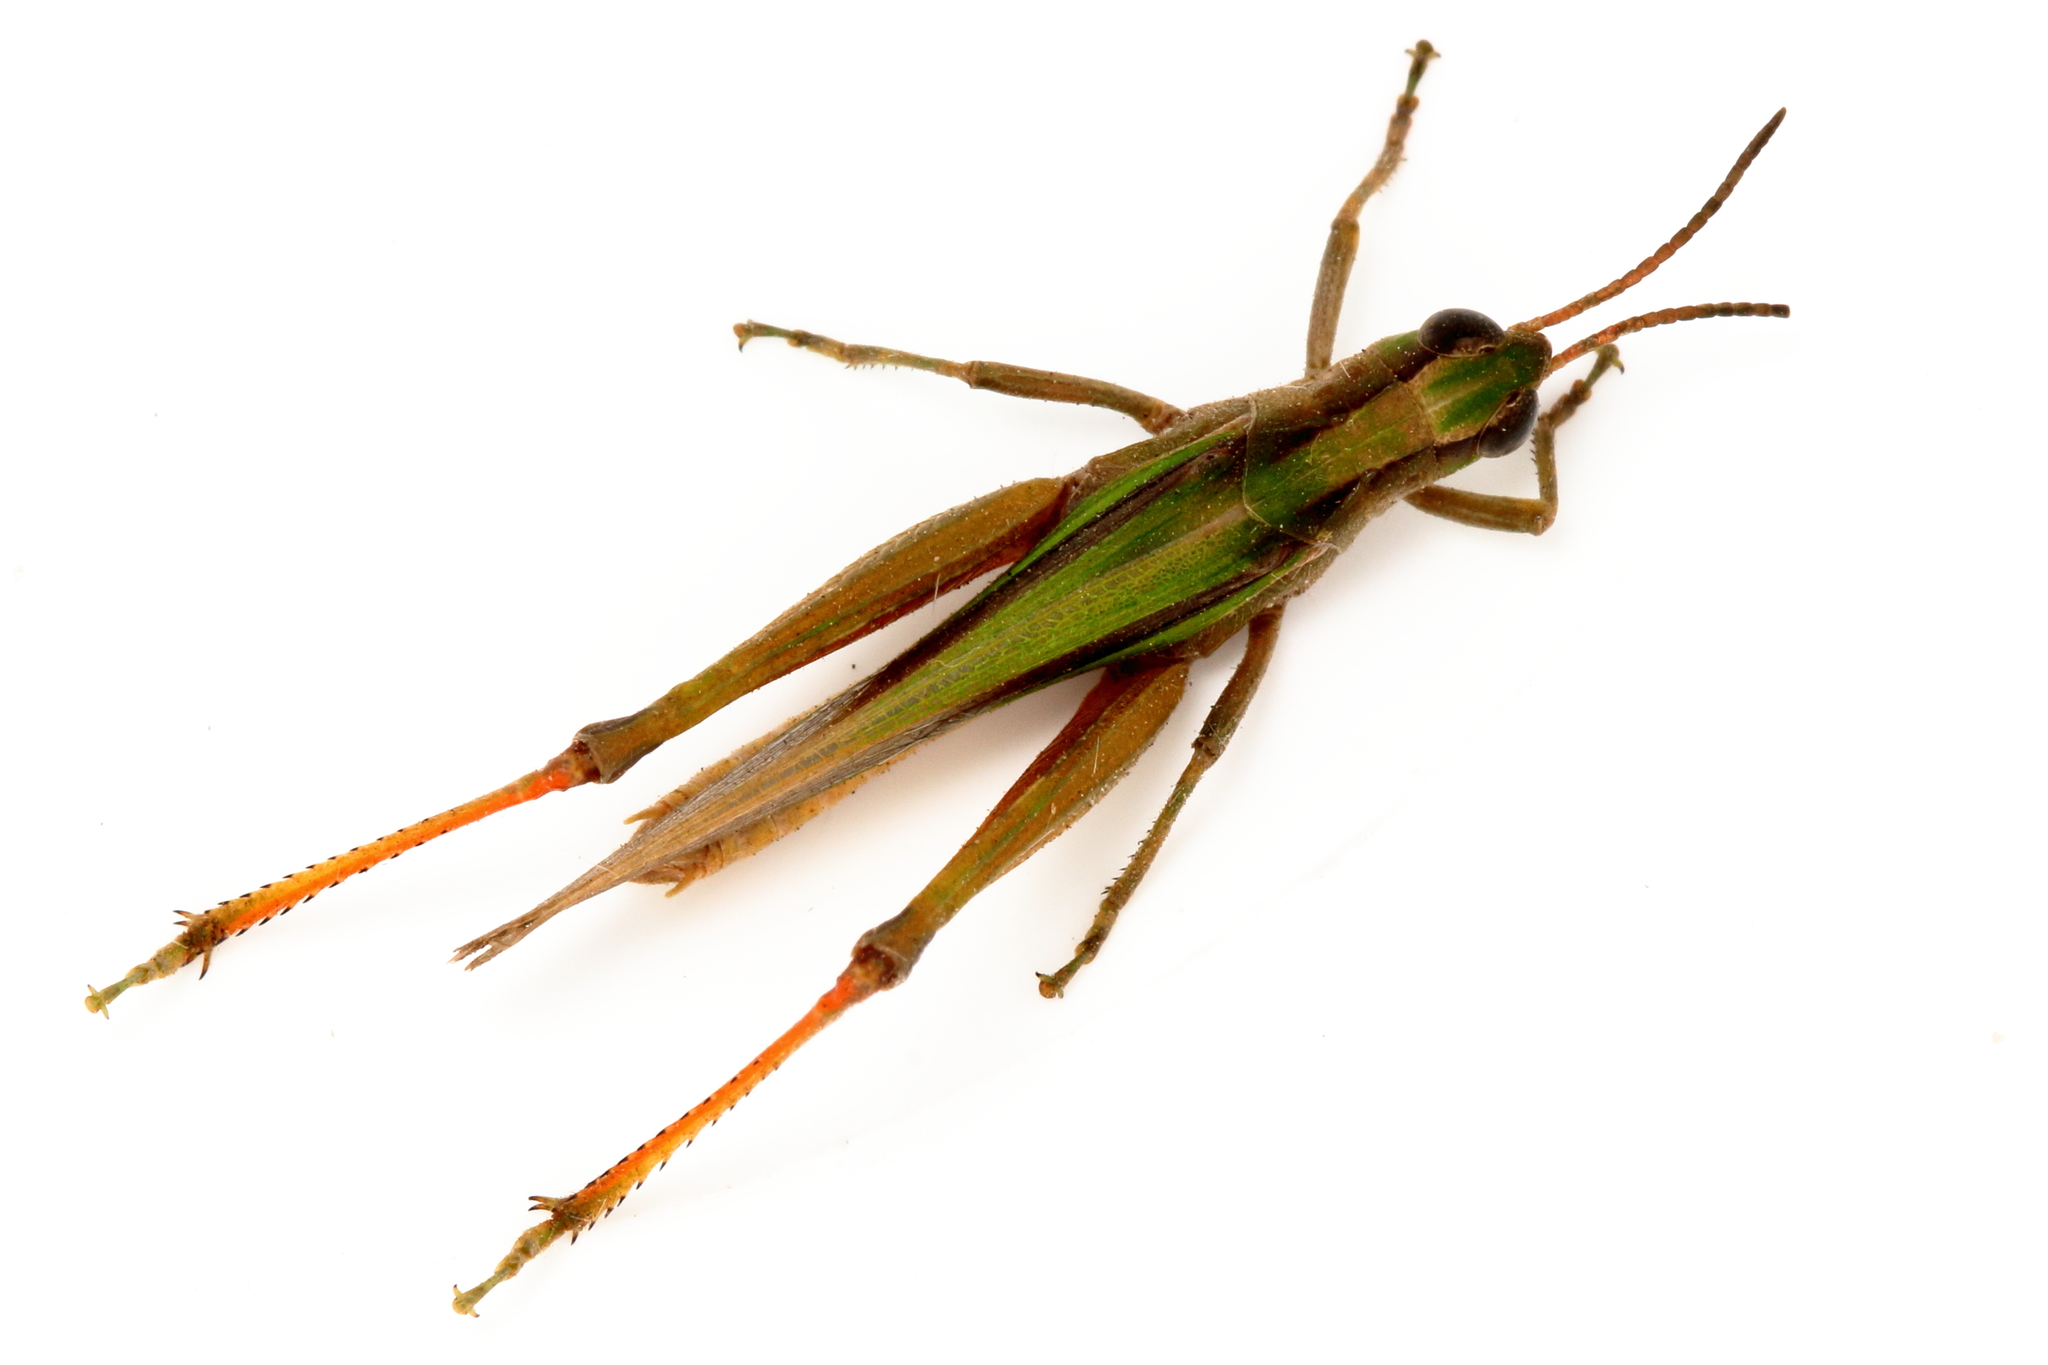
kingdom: Animalia
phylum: Arthropoda
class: Insecta
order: Orthoptera
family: Acrididae
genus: Schizobothrus
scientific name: Schizobothrus flavovittatus
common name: Disappearing grasshopper
